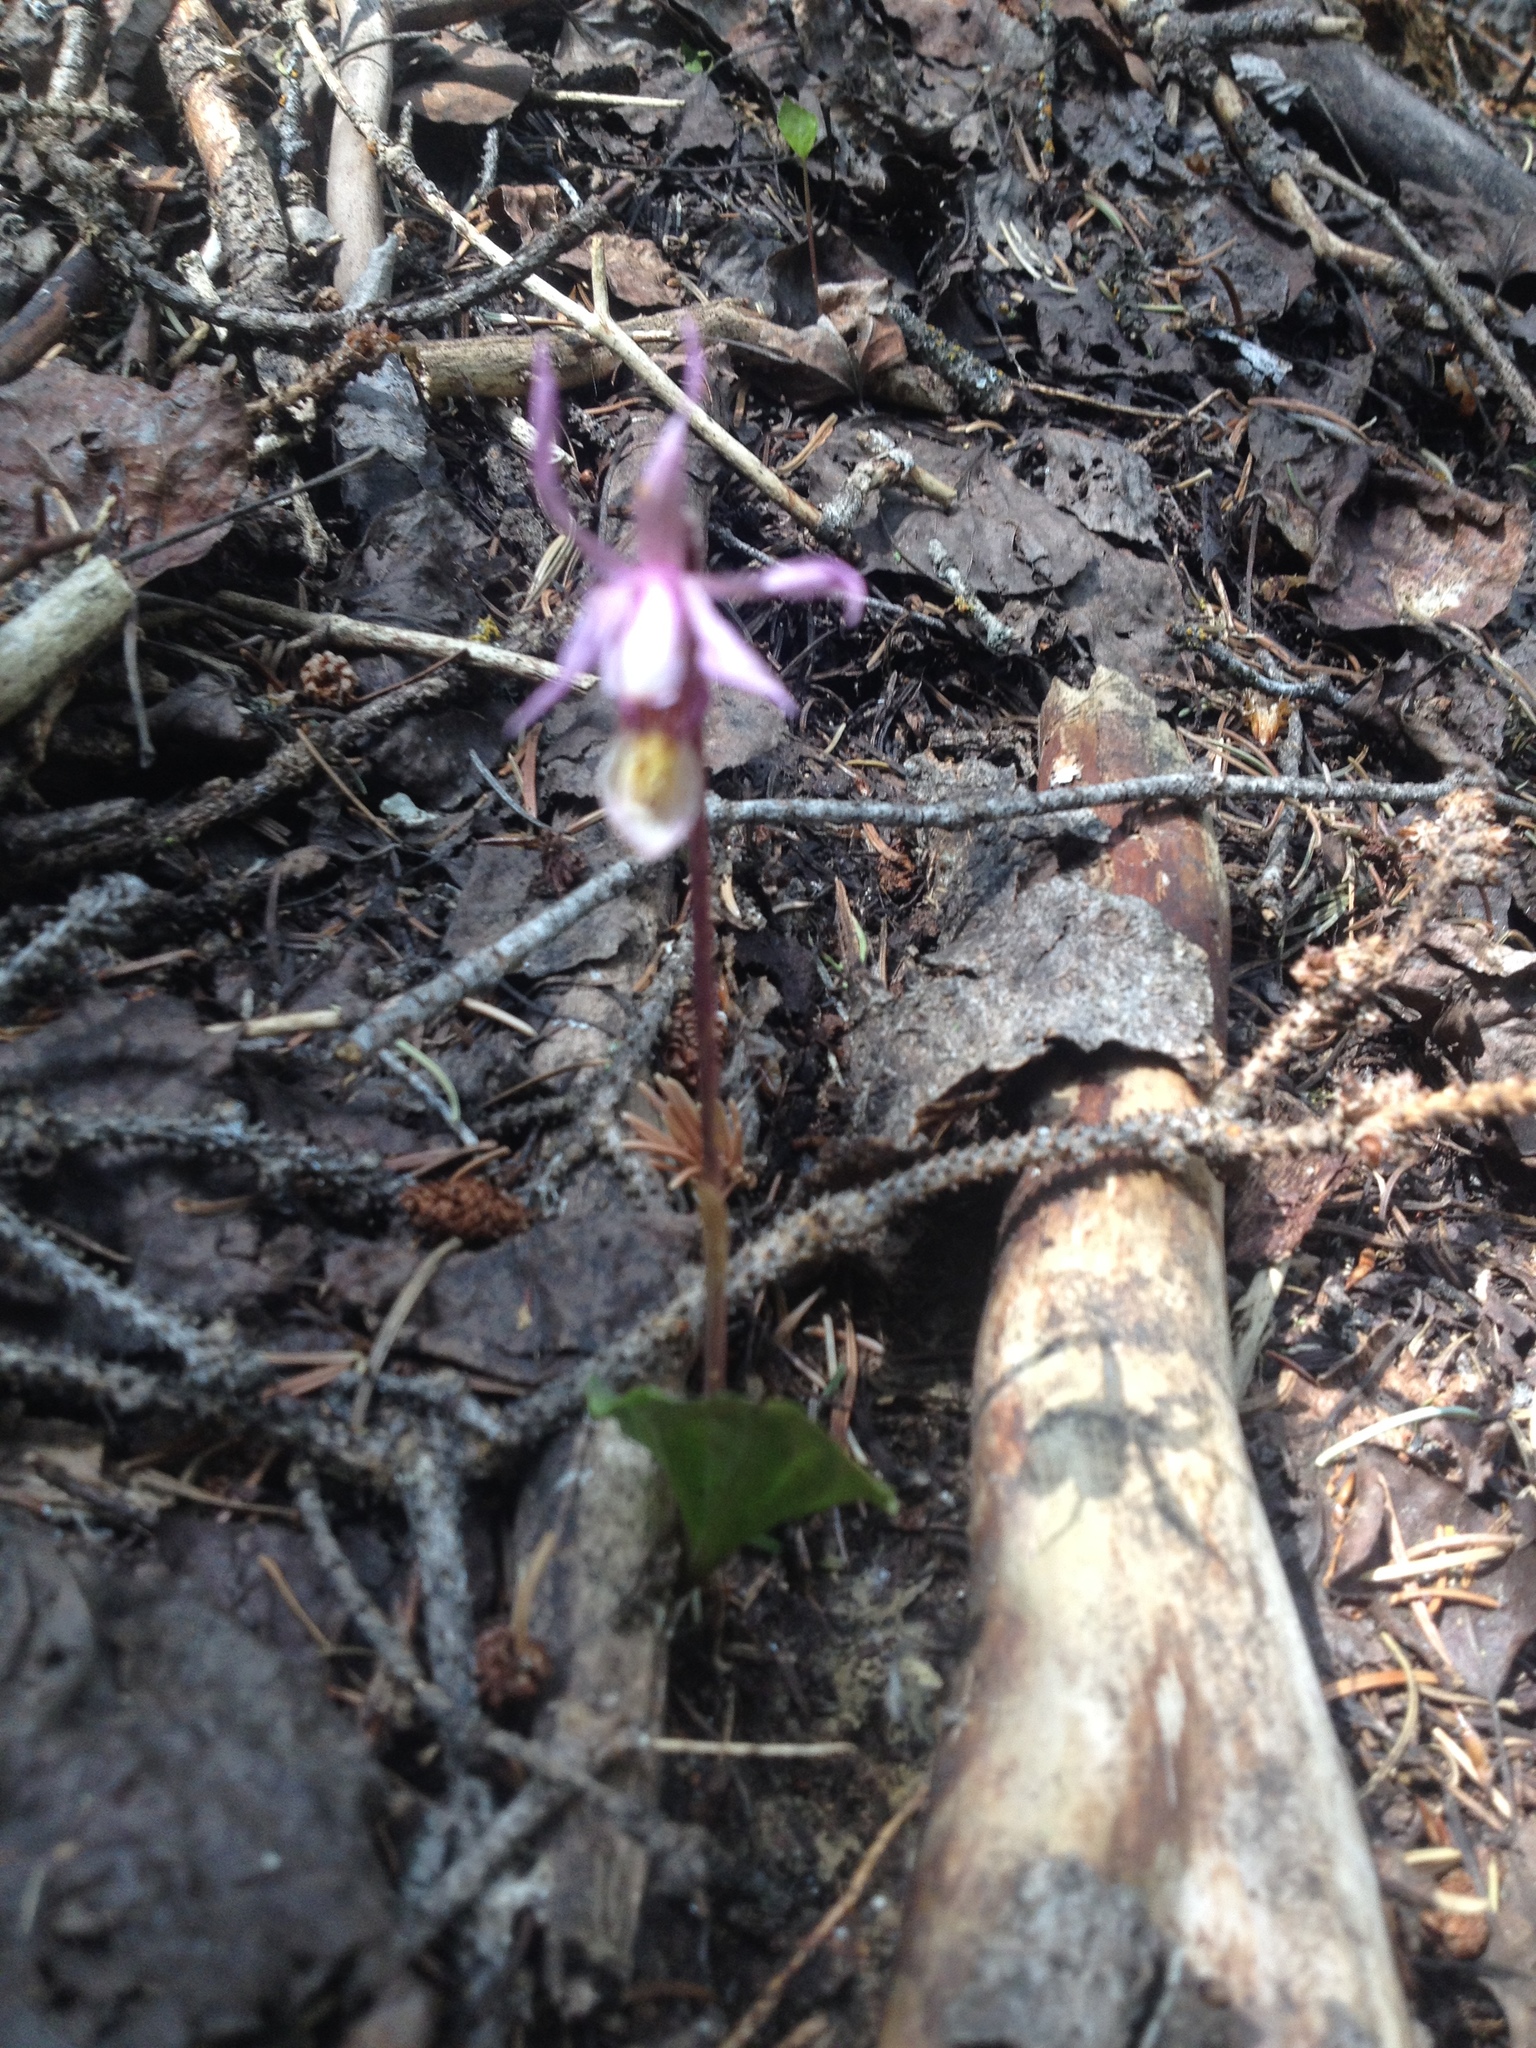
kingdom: Plantae
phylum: Tracheophyta
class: Liliopsida
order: Asparagales
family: Orchidaceae
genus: Calypso
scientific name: Calypso bulbosa
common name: Calypso
